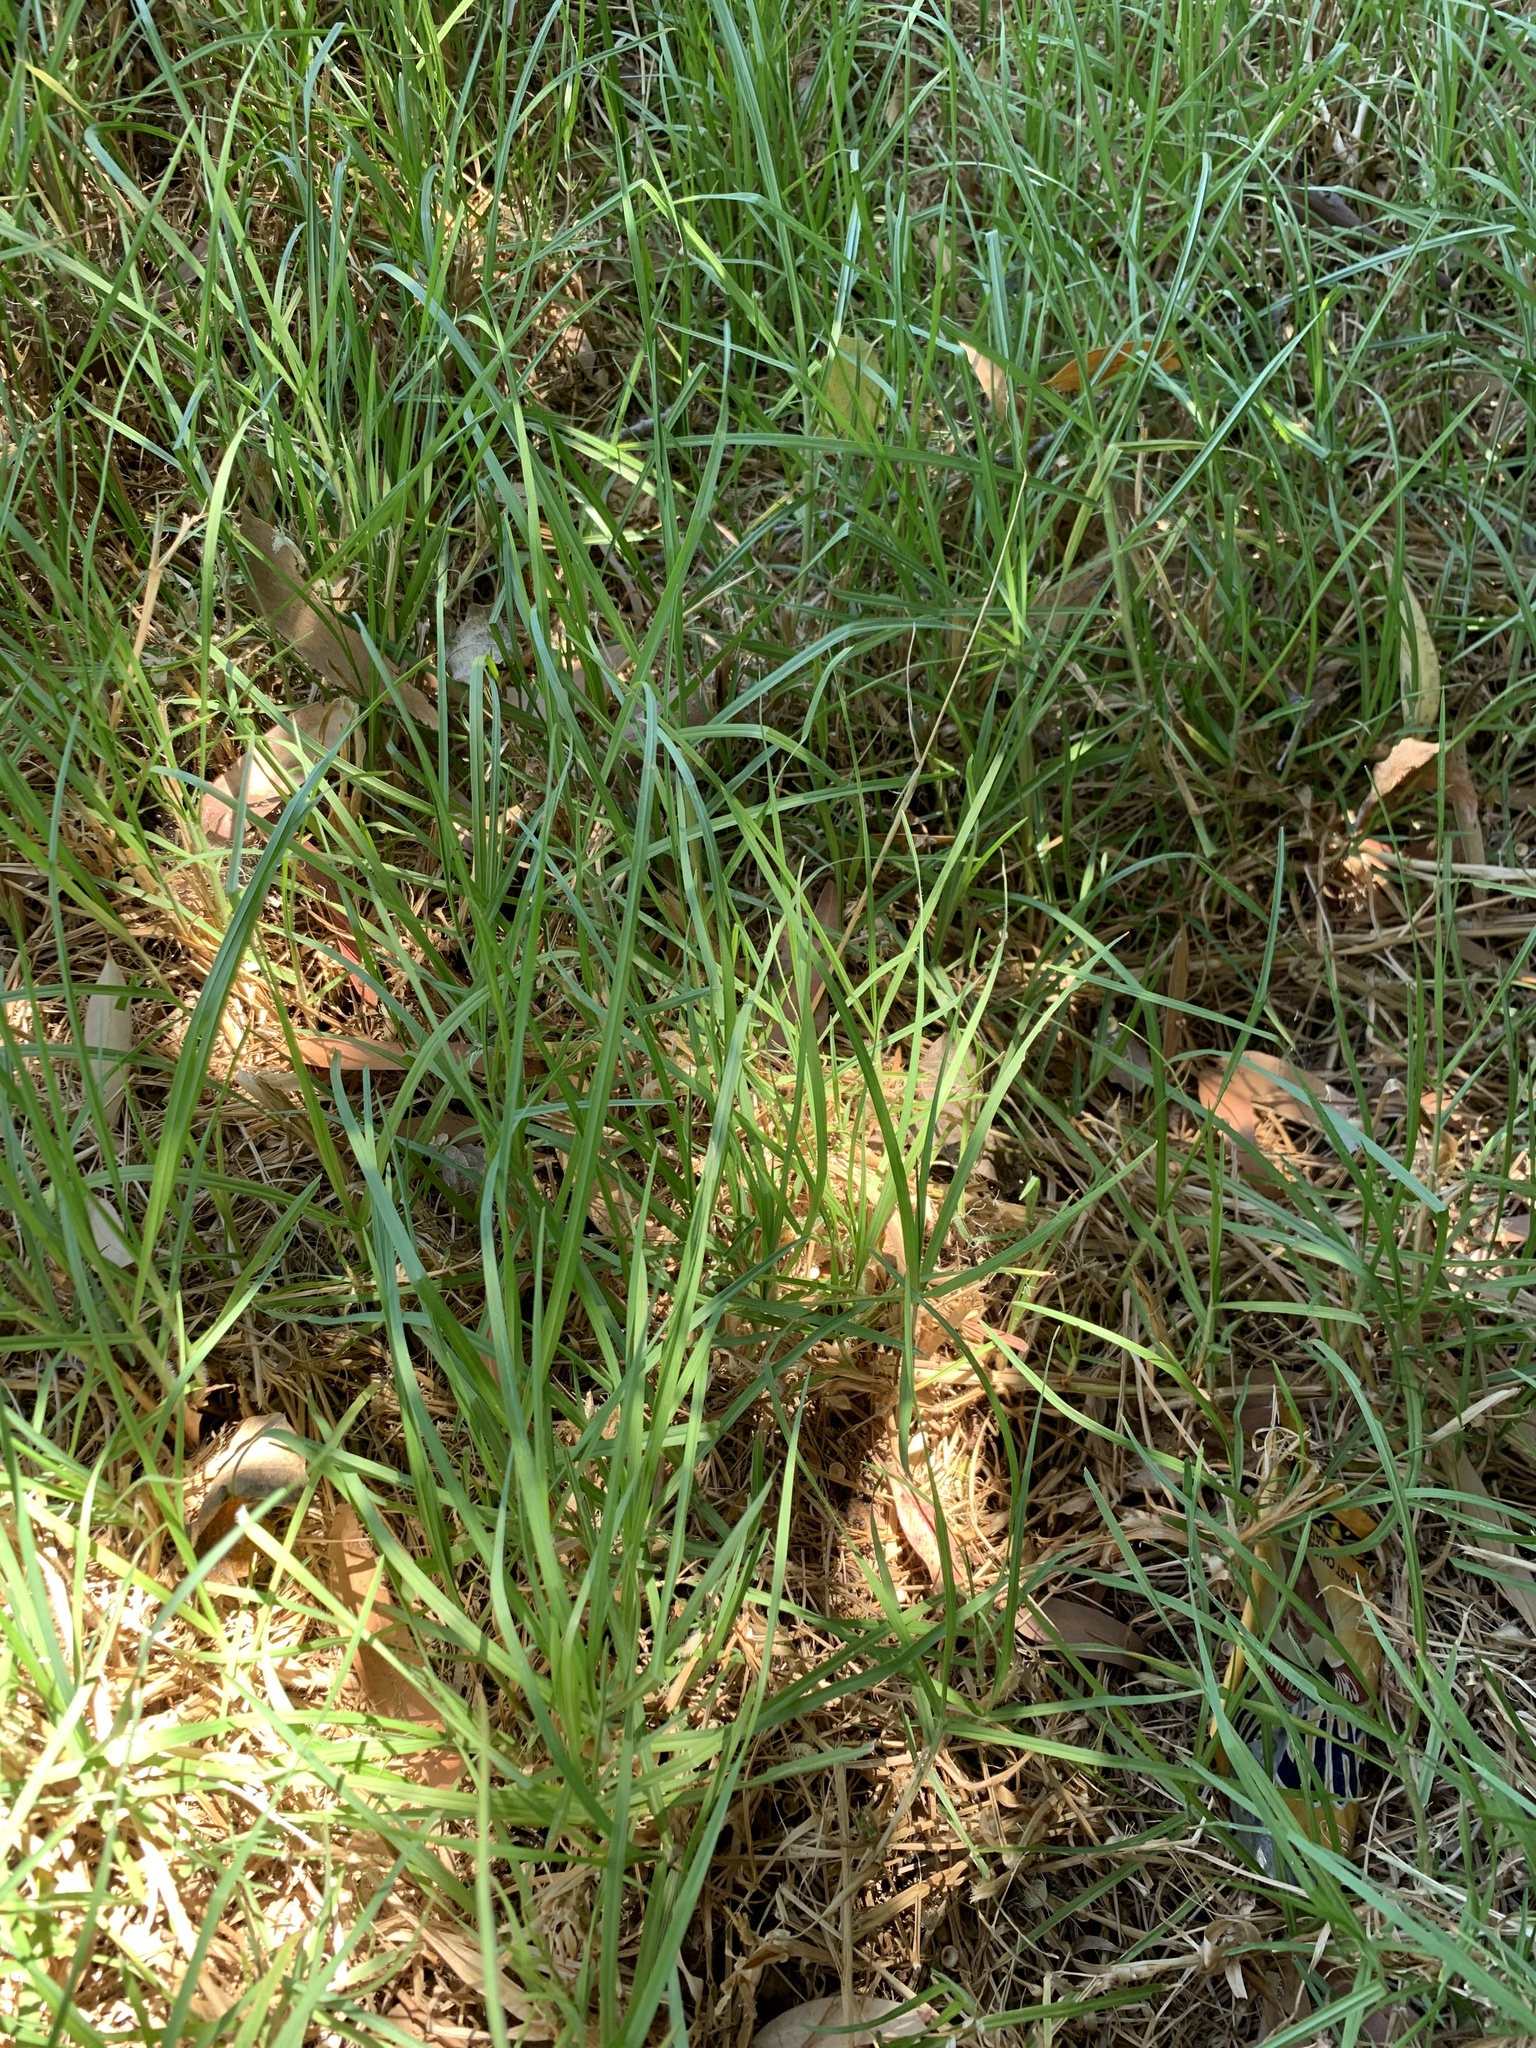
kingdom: Plantae
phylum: Tracheophyta
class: Liliopsida
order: Poales
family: Poaceae
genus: Cenchrus
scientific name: Cenchrus clandestinus
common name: Kikuyugrass
